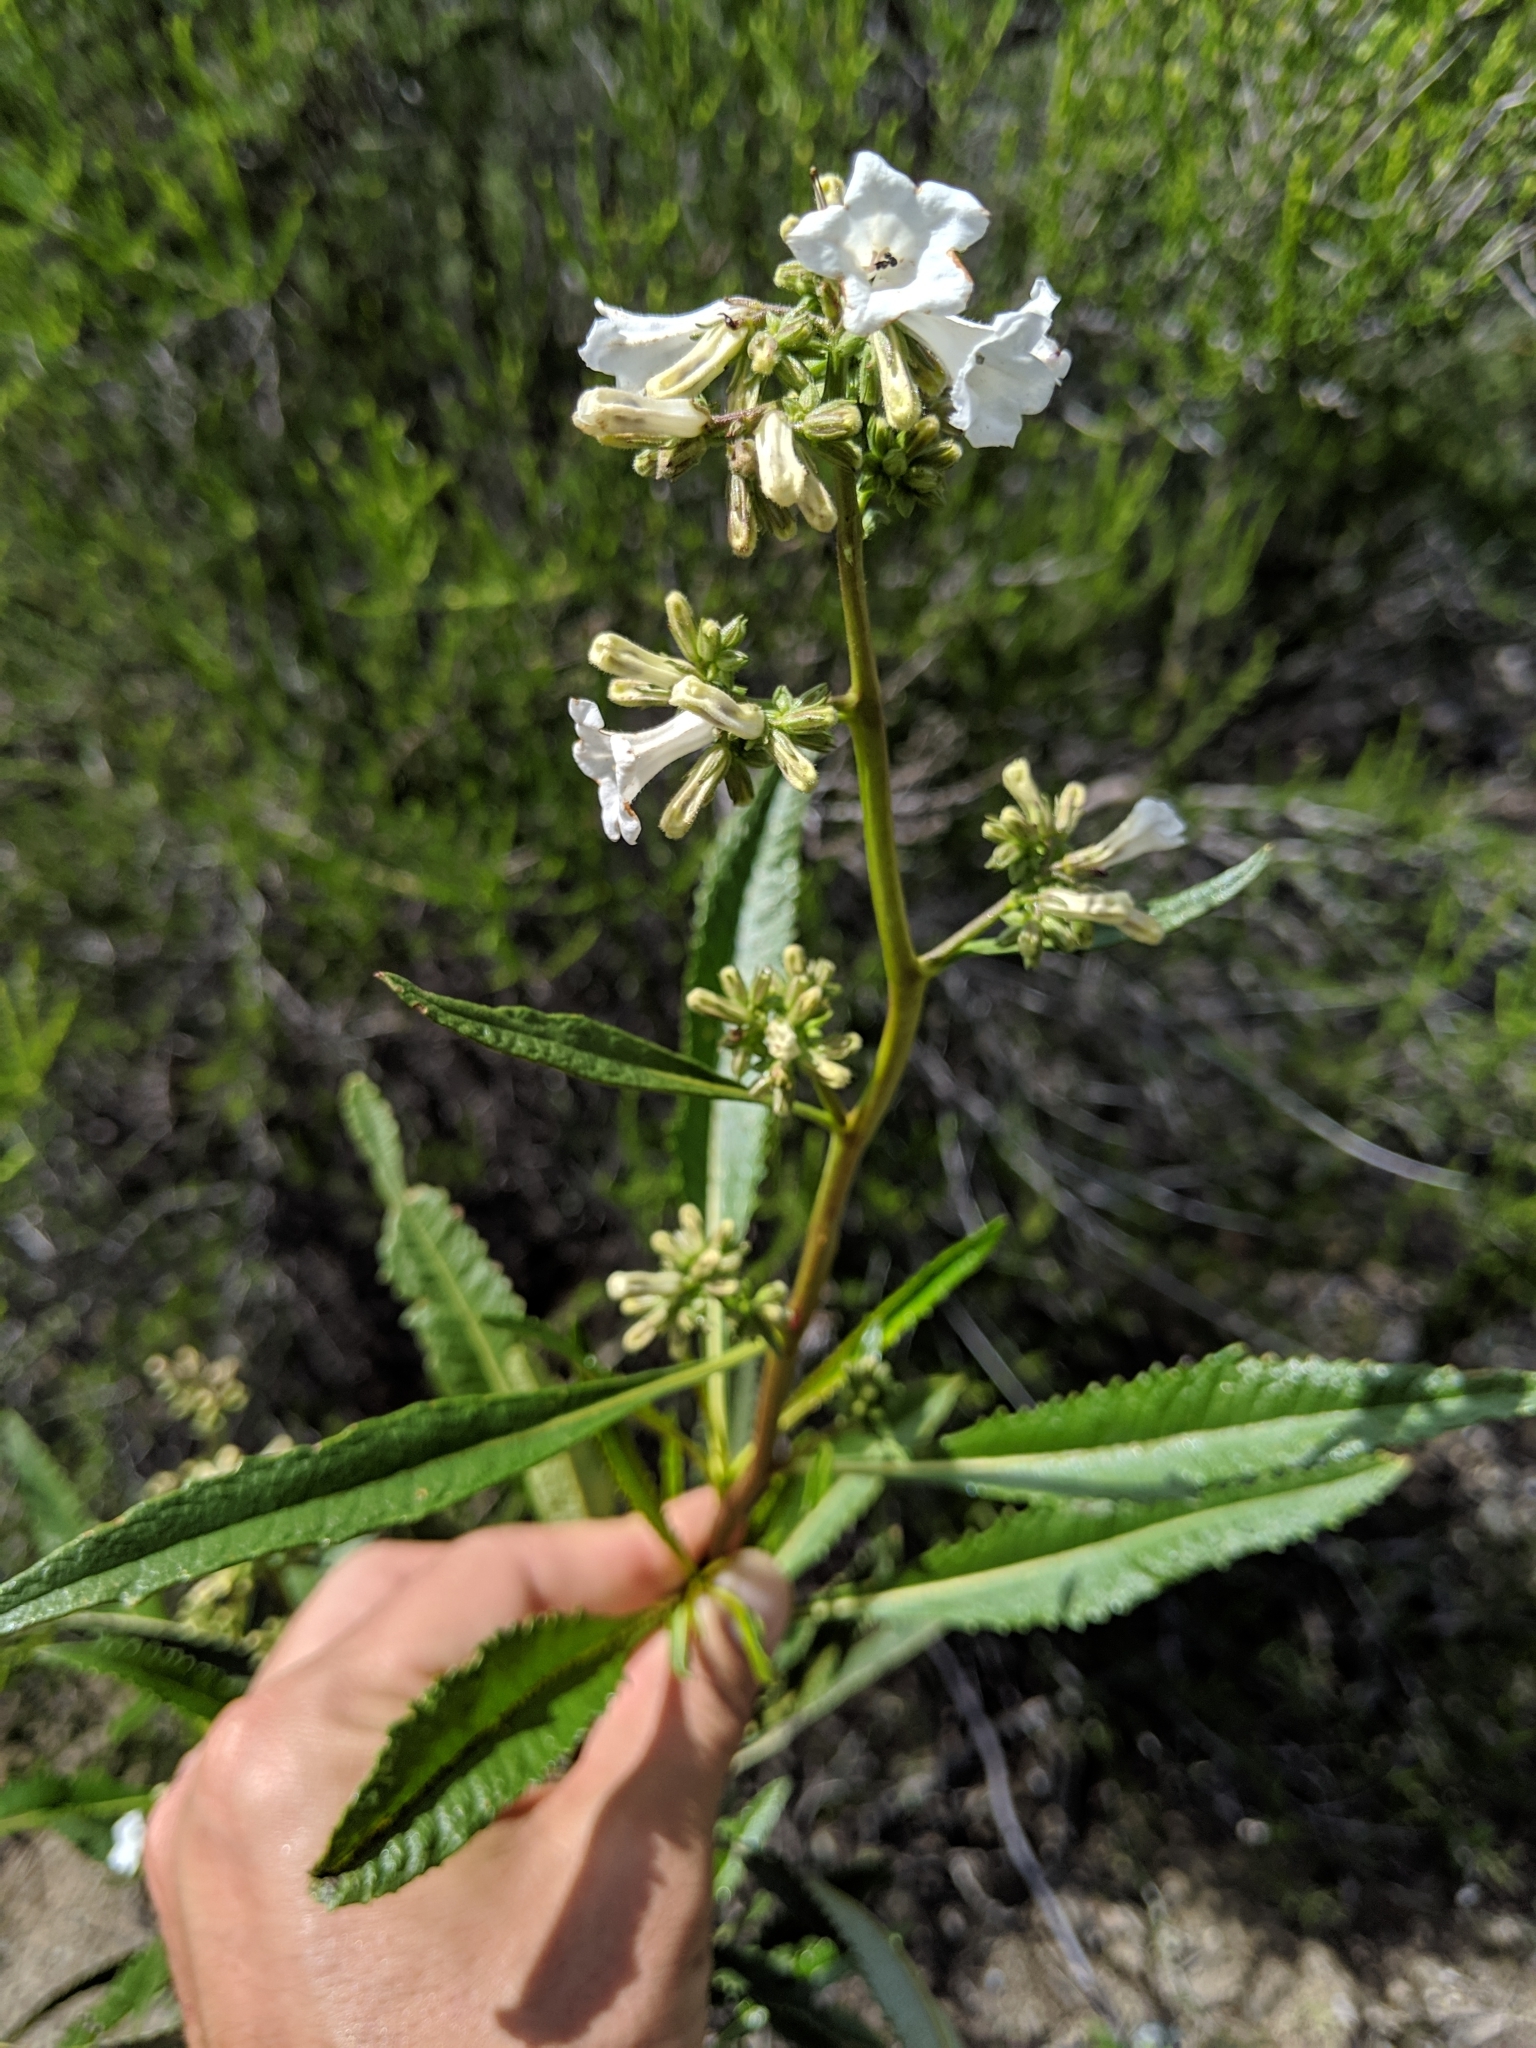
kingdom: Plantae
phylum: Tracheophyta
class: Magnoliopsida
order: Boraginales
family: Namaceae
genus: Eriodictyon
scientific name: Eriodictyon californicum
